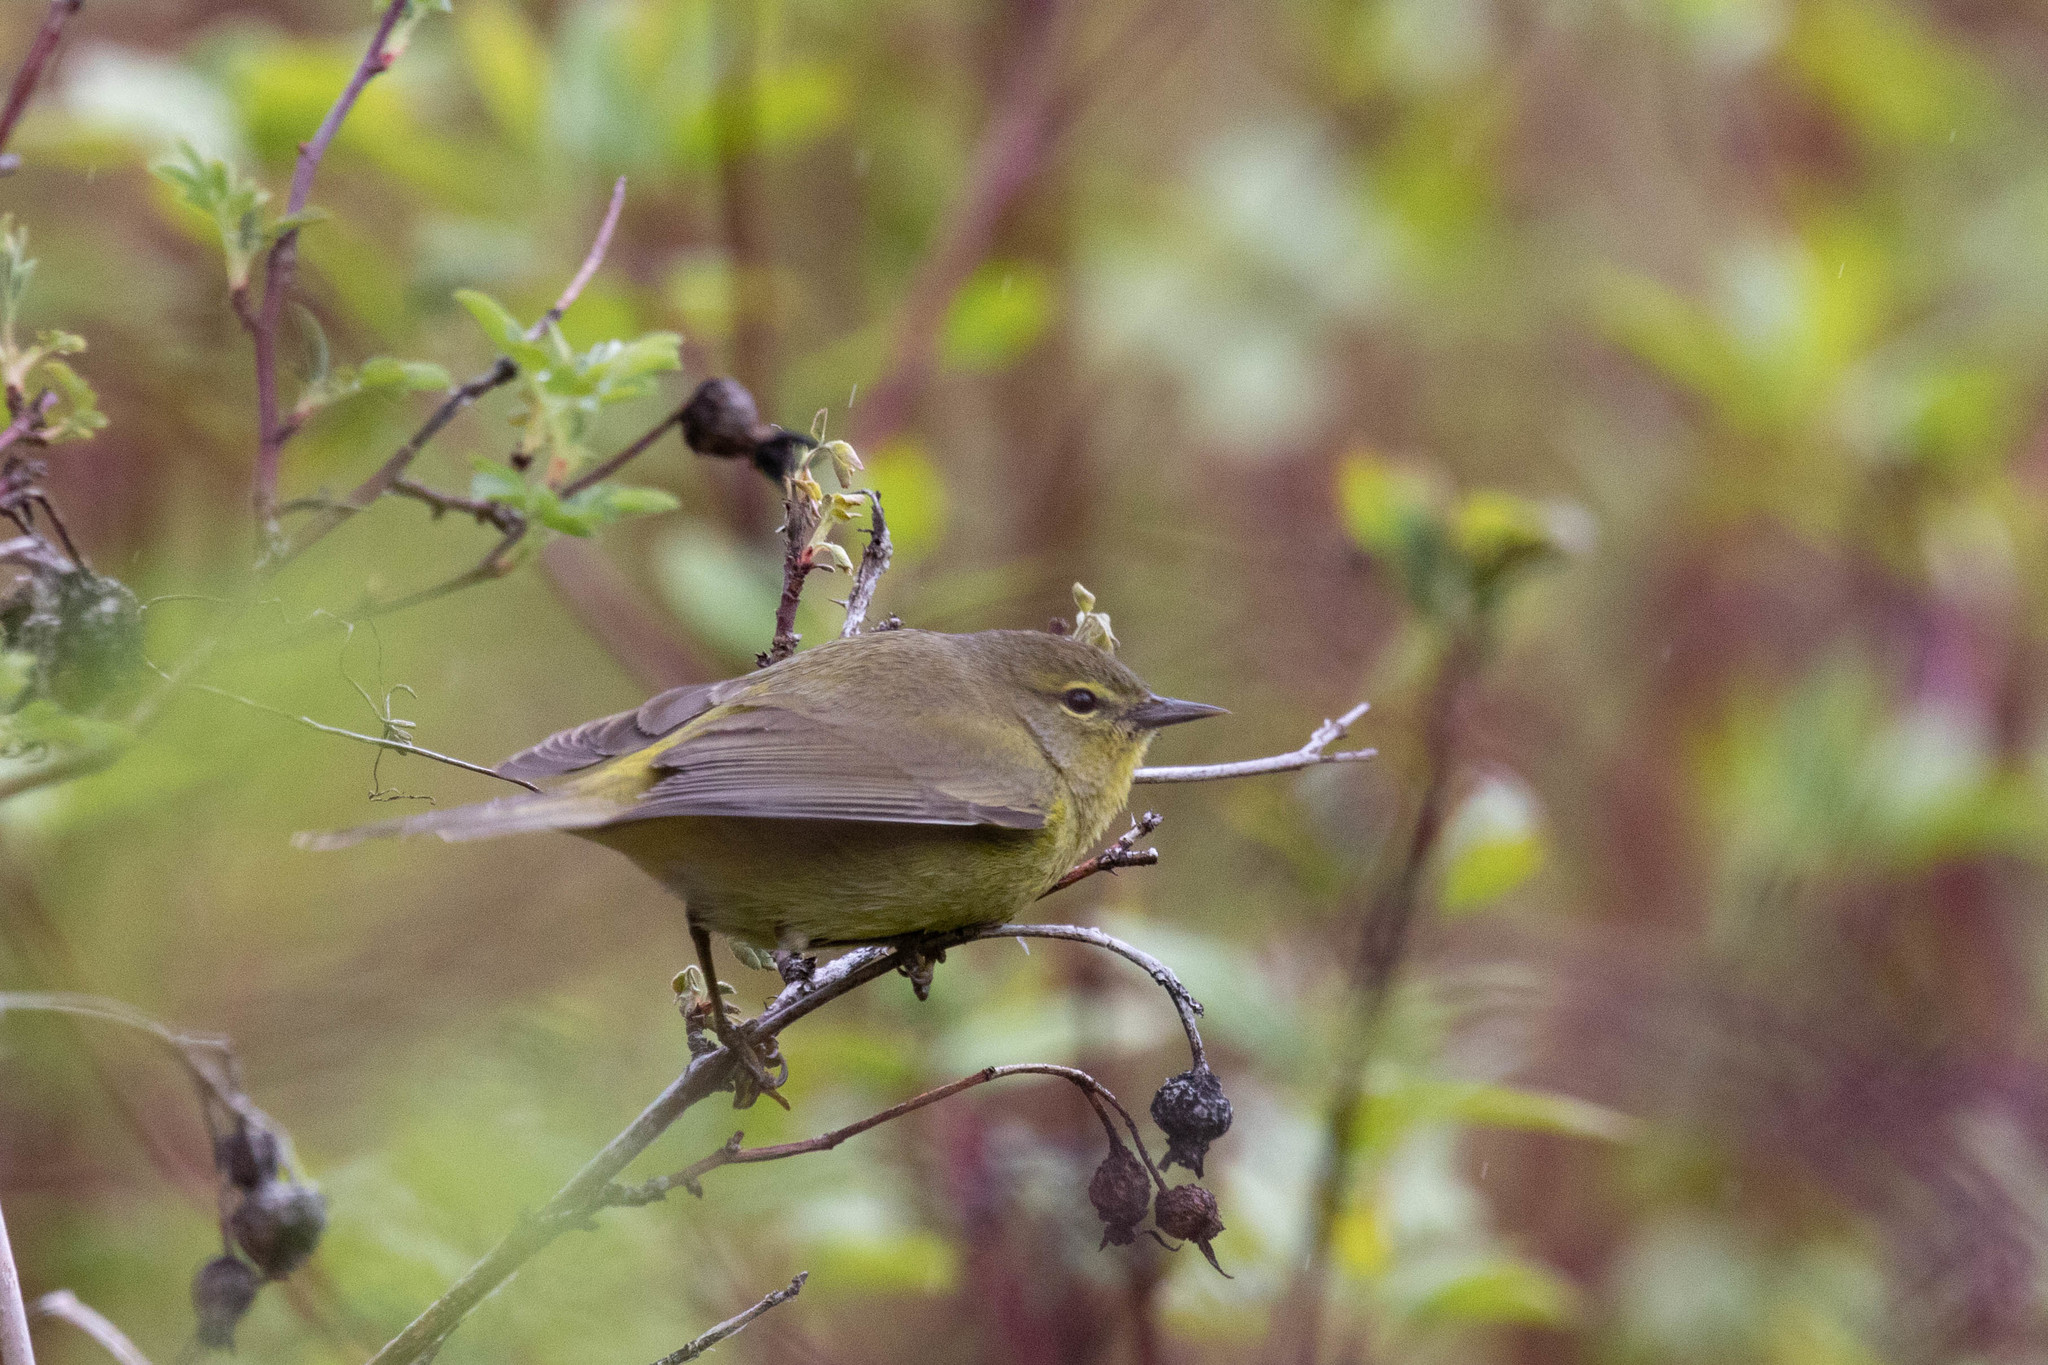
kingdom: Animalia
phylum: Chordata
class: Aves
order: Passeriformes
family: Parulidae
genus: Leiothlypis
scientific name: Leiothlypis celata
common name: Orange-crowned warbler
